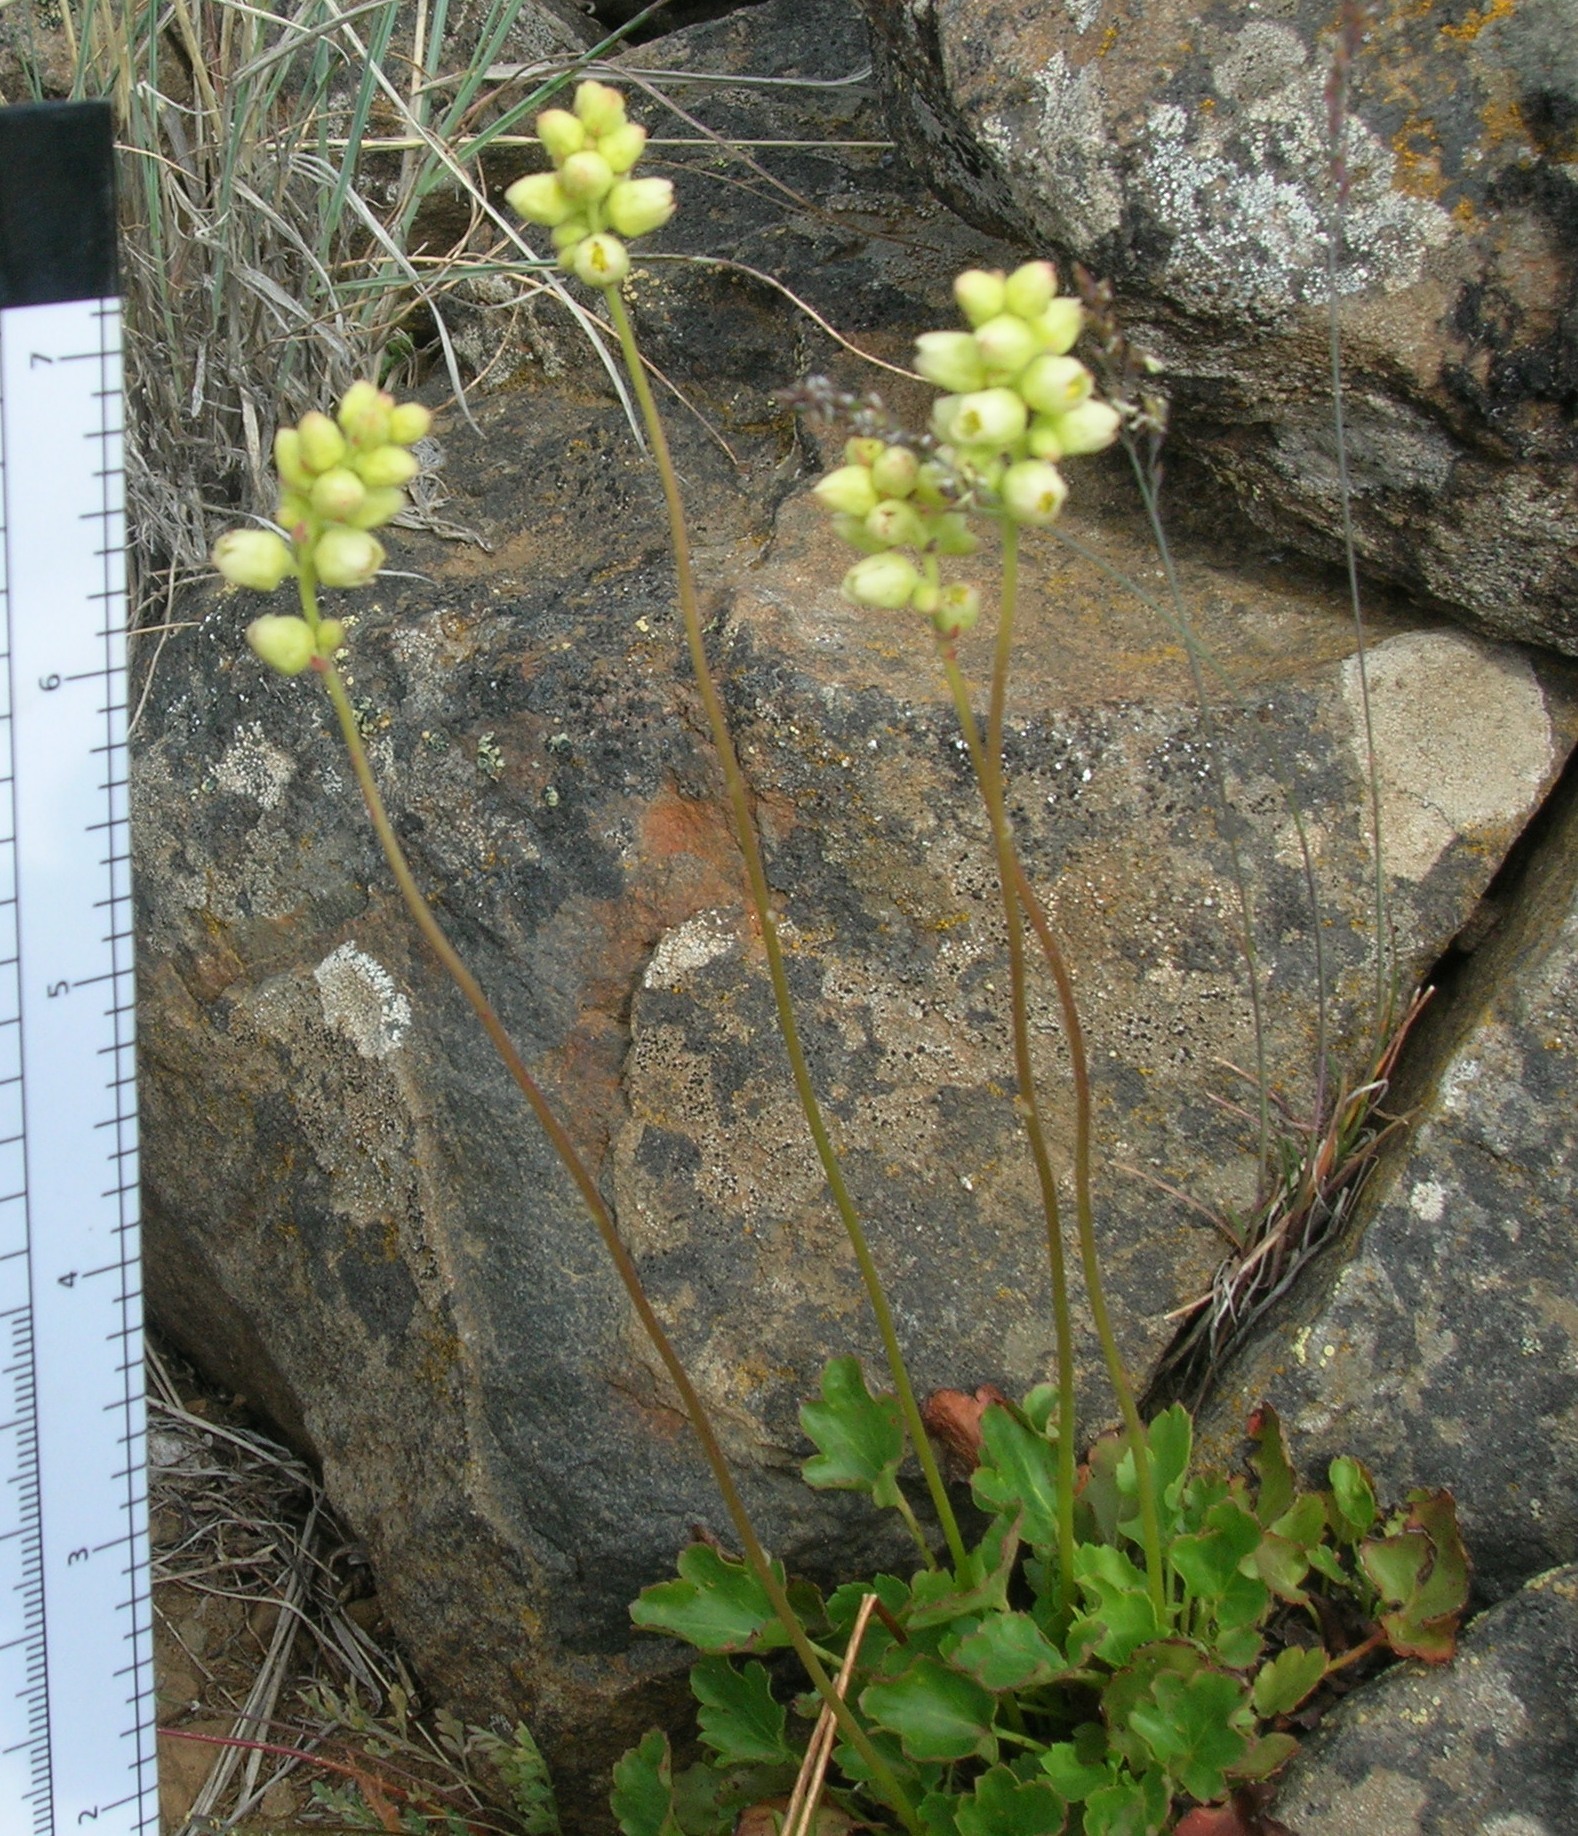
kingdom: Plantae
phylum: Tracheophyta
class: Magnoliopsida
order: Saxifragales
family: Saxifragaceae
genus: Heuchera
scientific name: Heuchera cylindrica
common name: Mat alumroot
